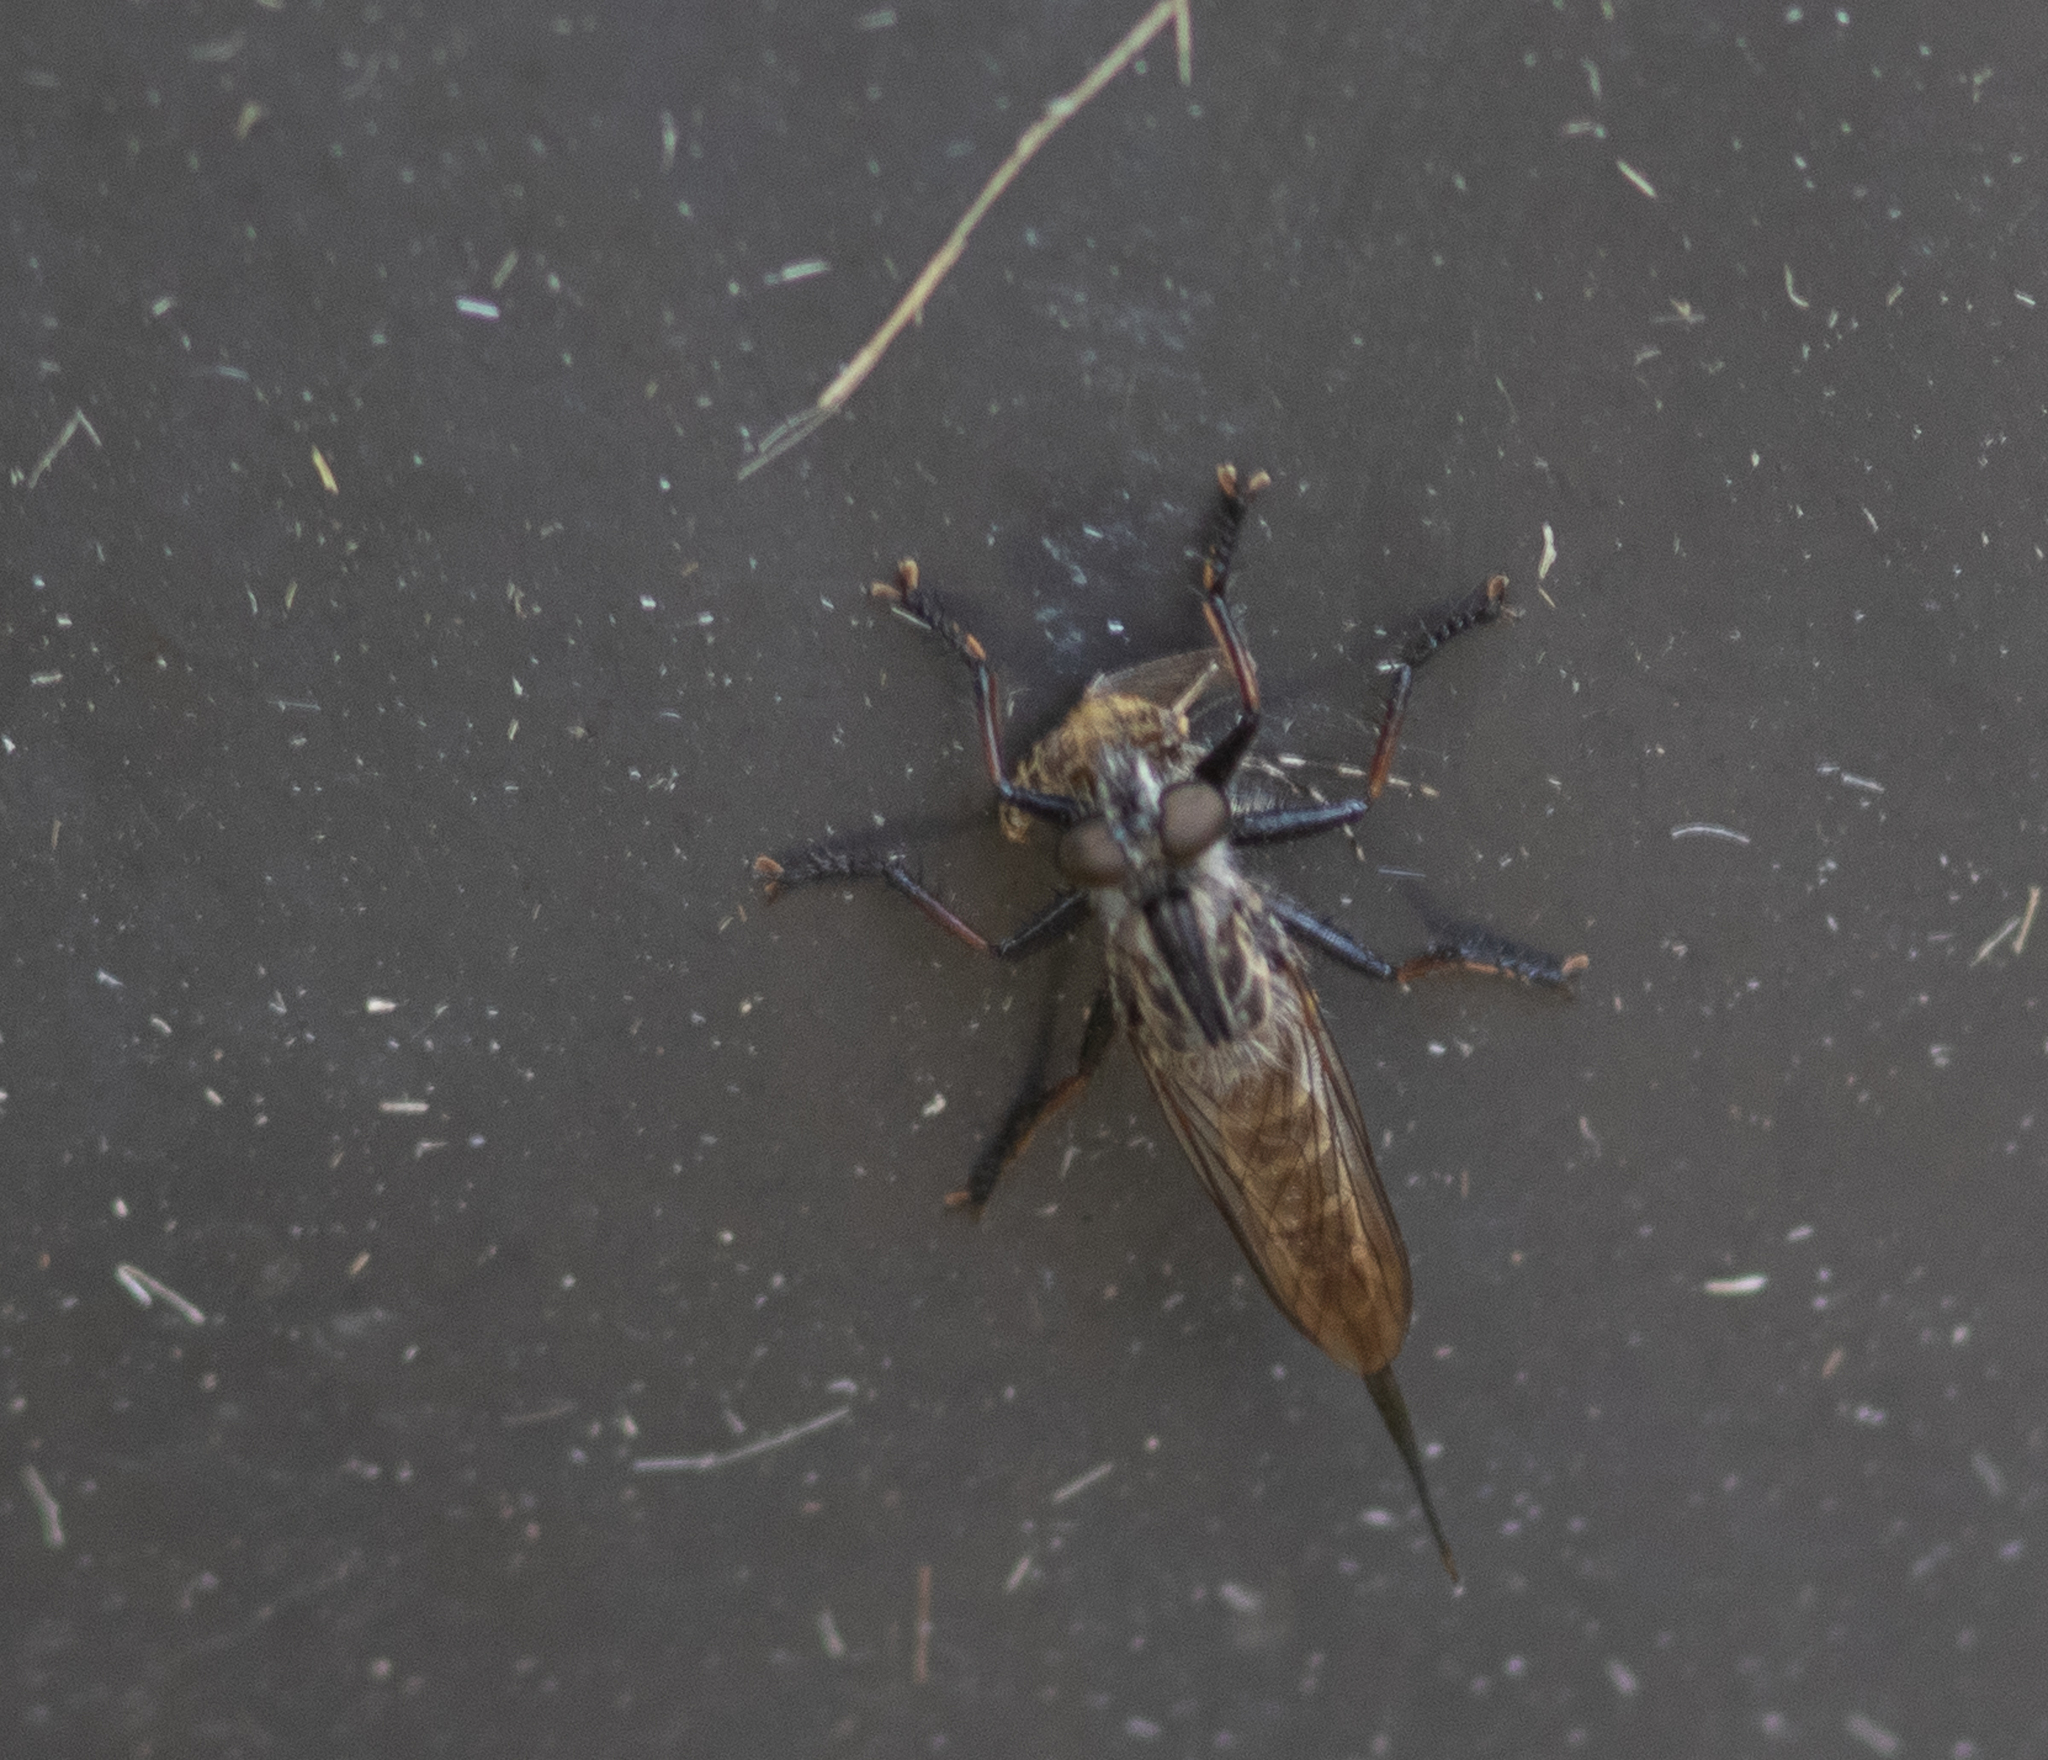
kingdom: Animalia
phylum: Arthropoda
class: Insecta
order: Diptera
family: Asilidae
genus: Efferia
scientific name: Efferia aestuans
